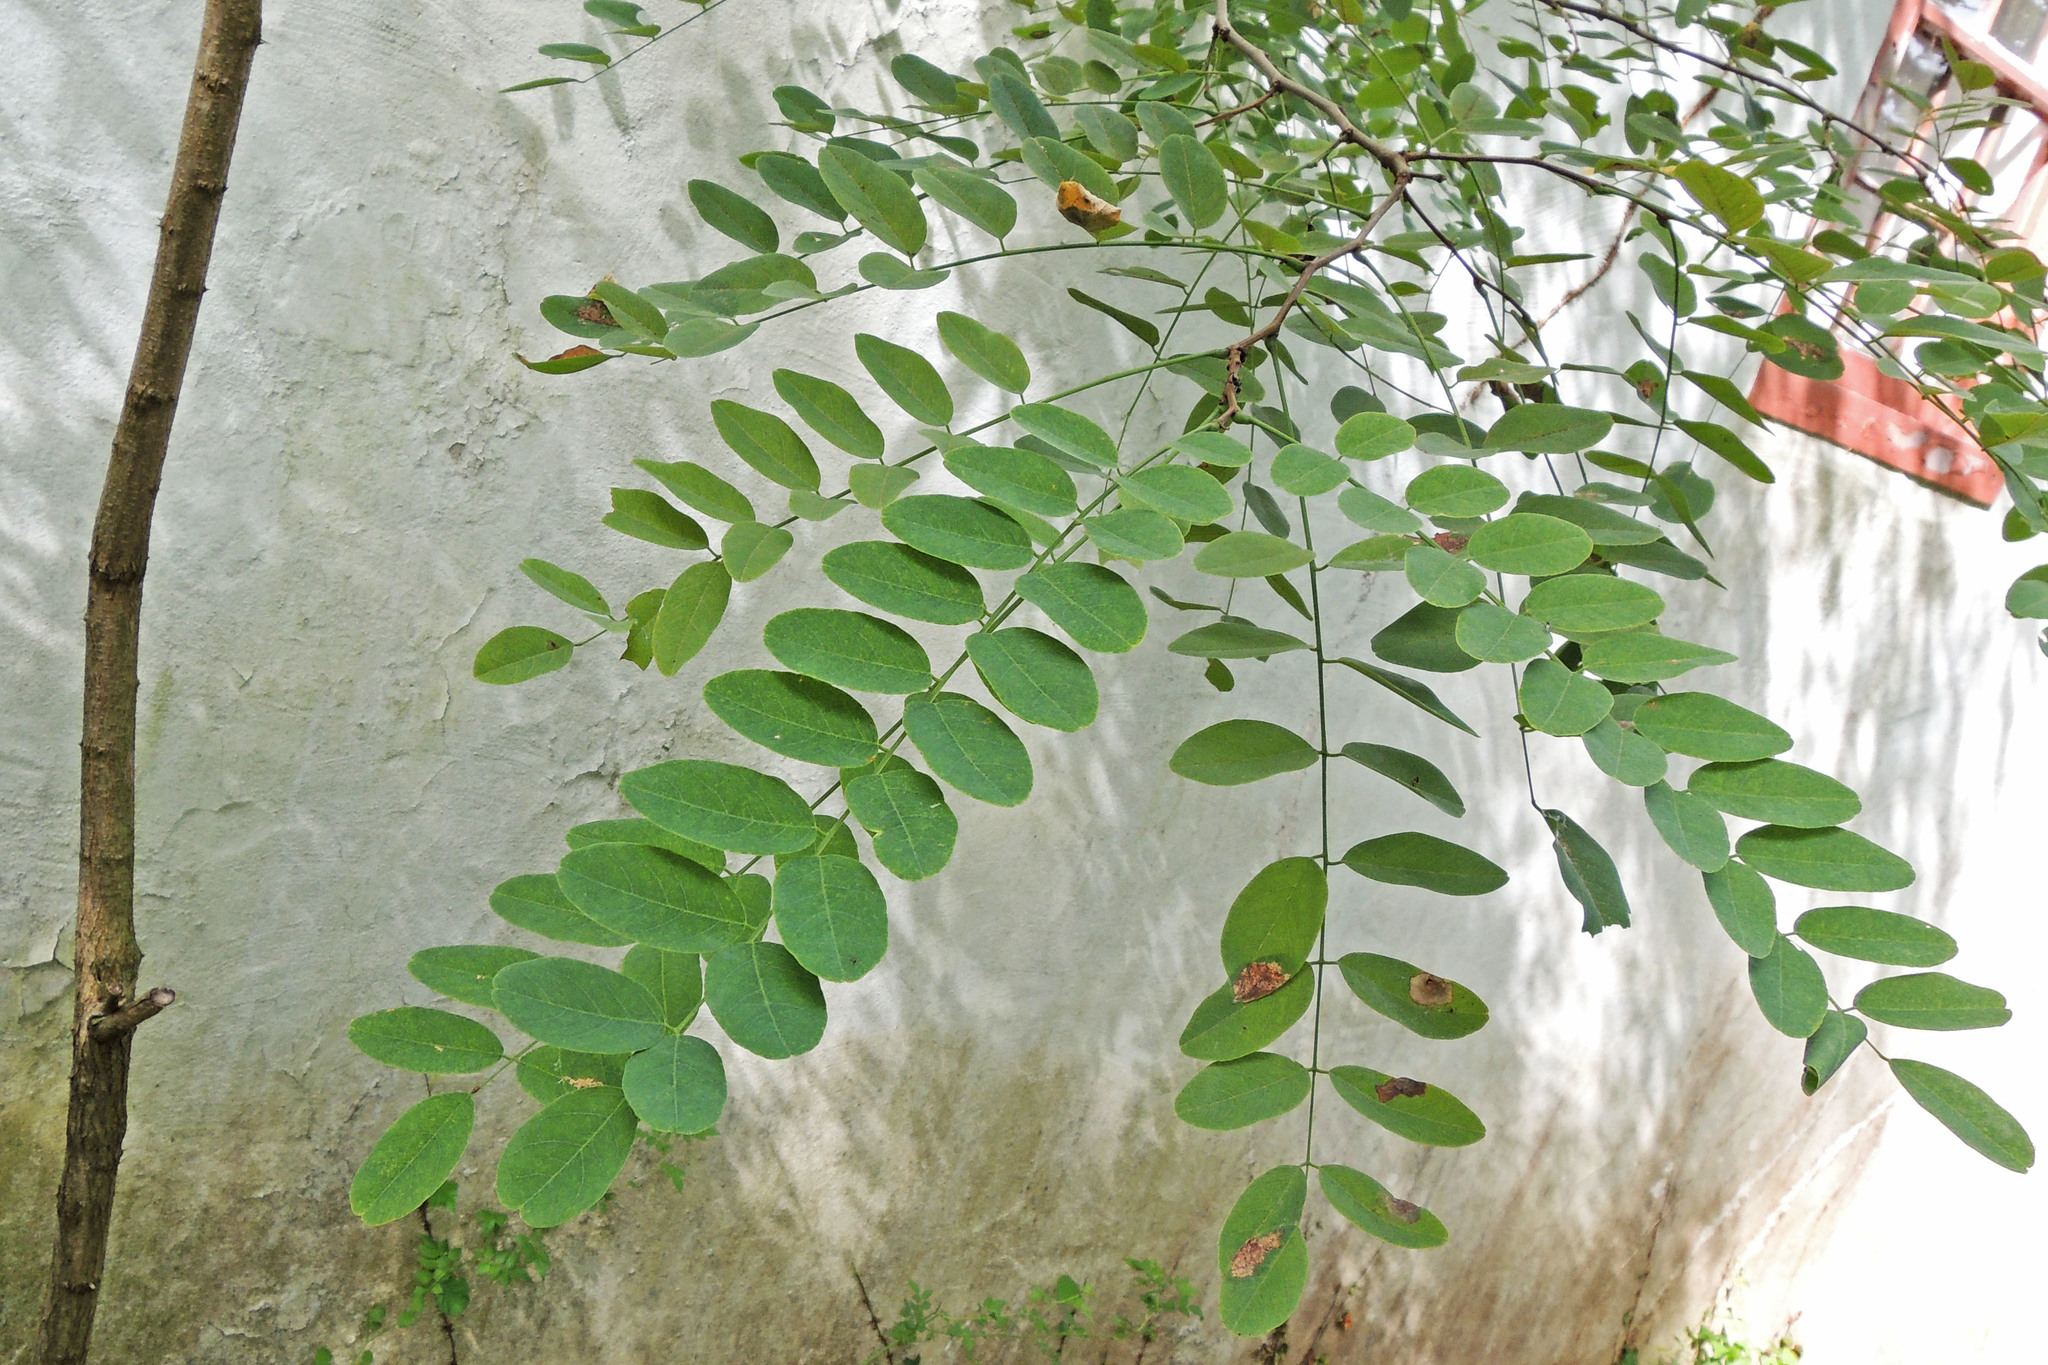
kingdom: Plantae
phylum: Tracheophyta
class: Magnoliopsida
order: Fabales
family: Fabaceae
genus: Robinia
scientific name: Robinia pseudoacacia
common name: Black locust
